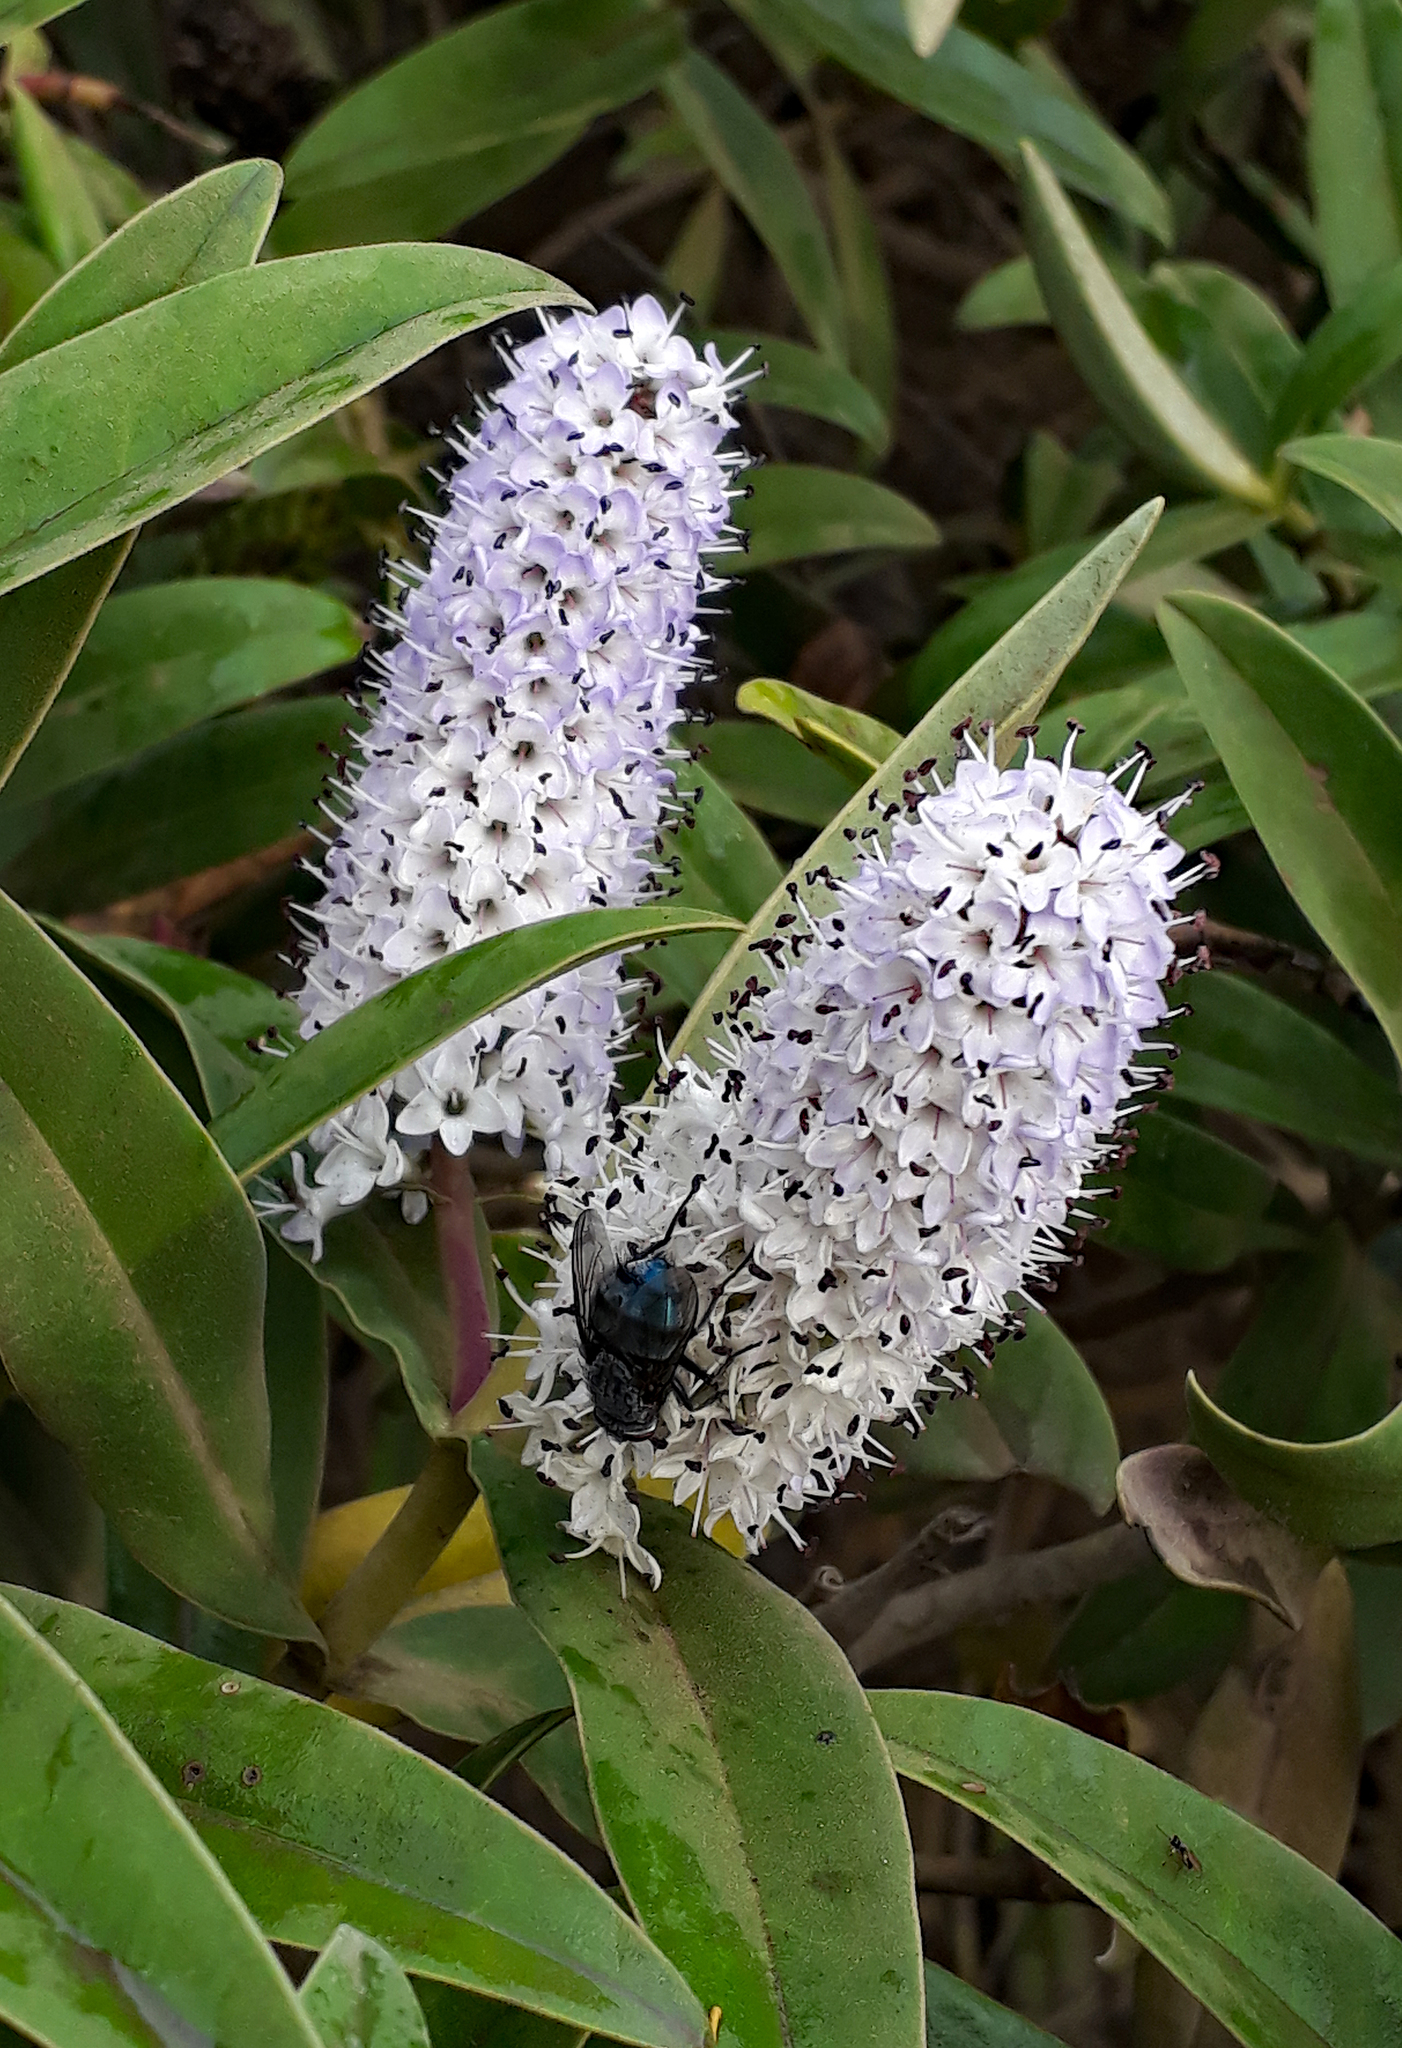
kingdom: Animalia
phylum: Arthropoda
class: Insecta
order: Diptera
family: Calliphoridae
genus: Calliphora
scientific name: Calliphora vicina
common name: Common blow flie
